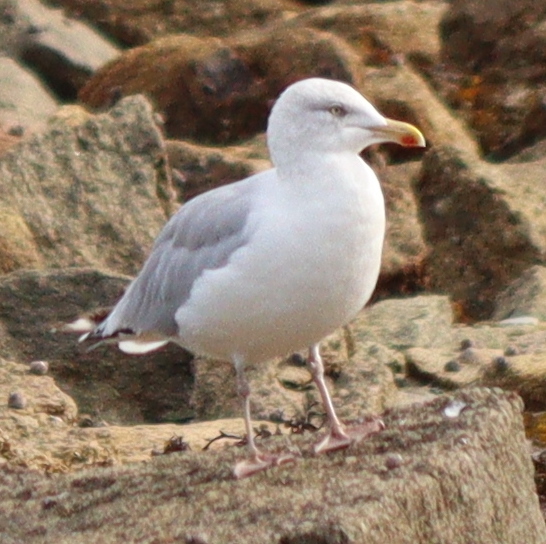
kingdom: Animalia
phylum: Chordata
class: Aves
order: Charadriiformes
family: Laridae
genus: Larus
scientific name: Larus argentatus
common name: Herring gull
